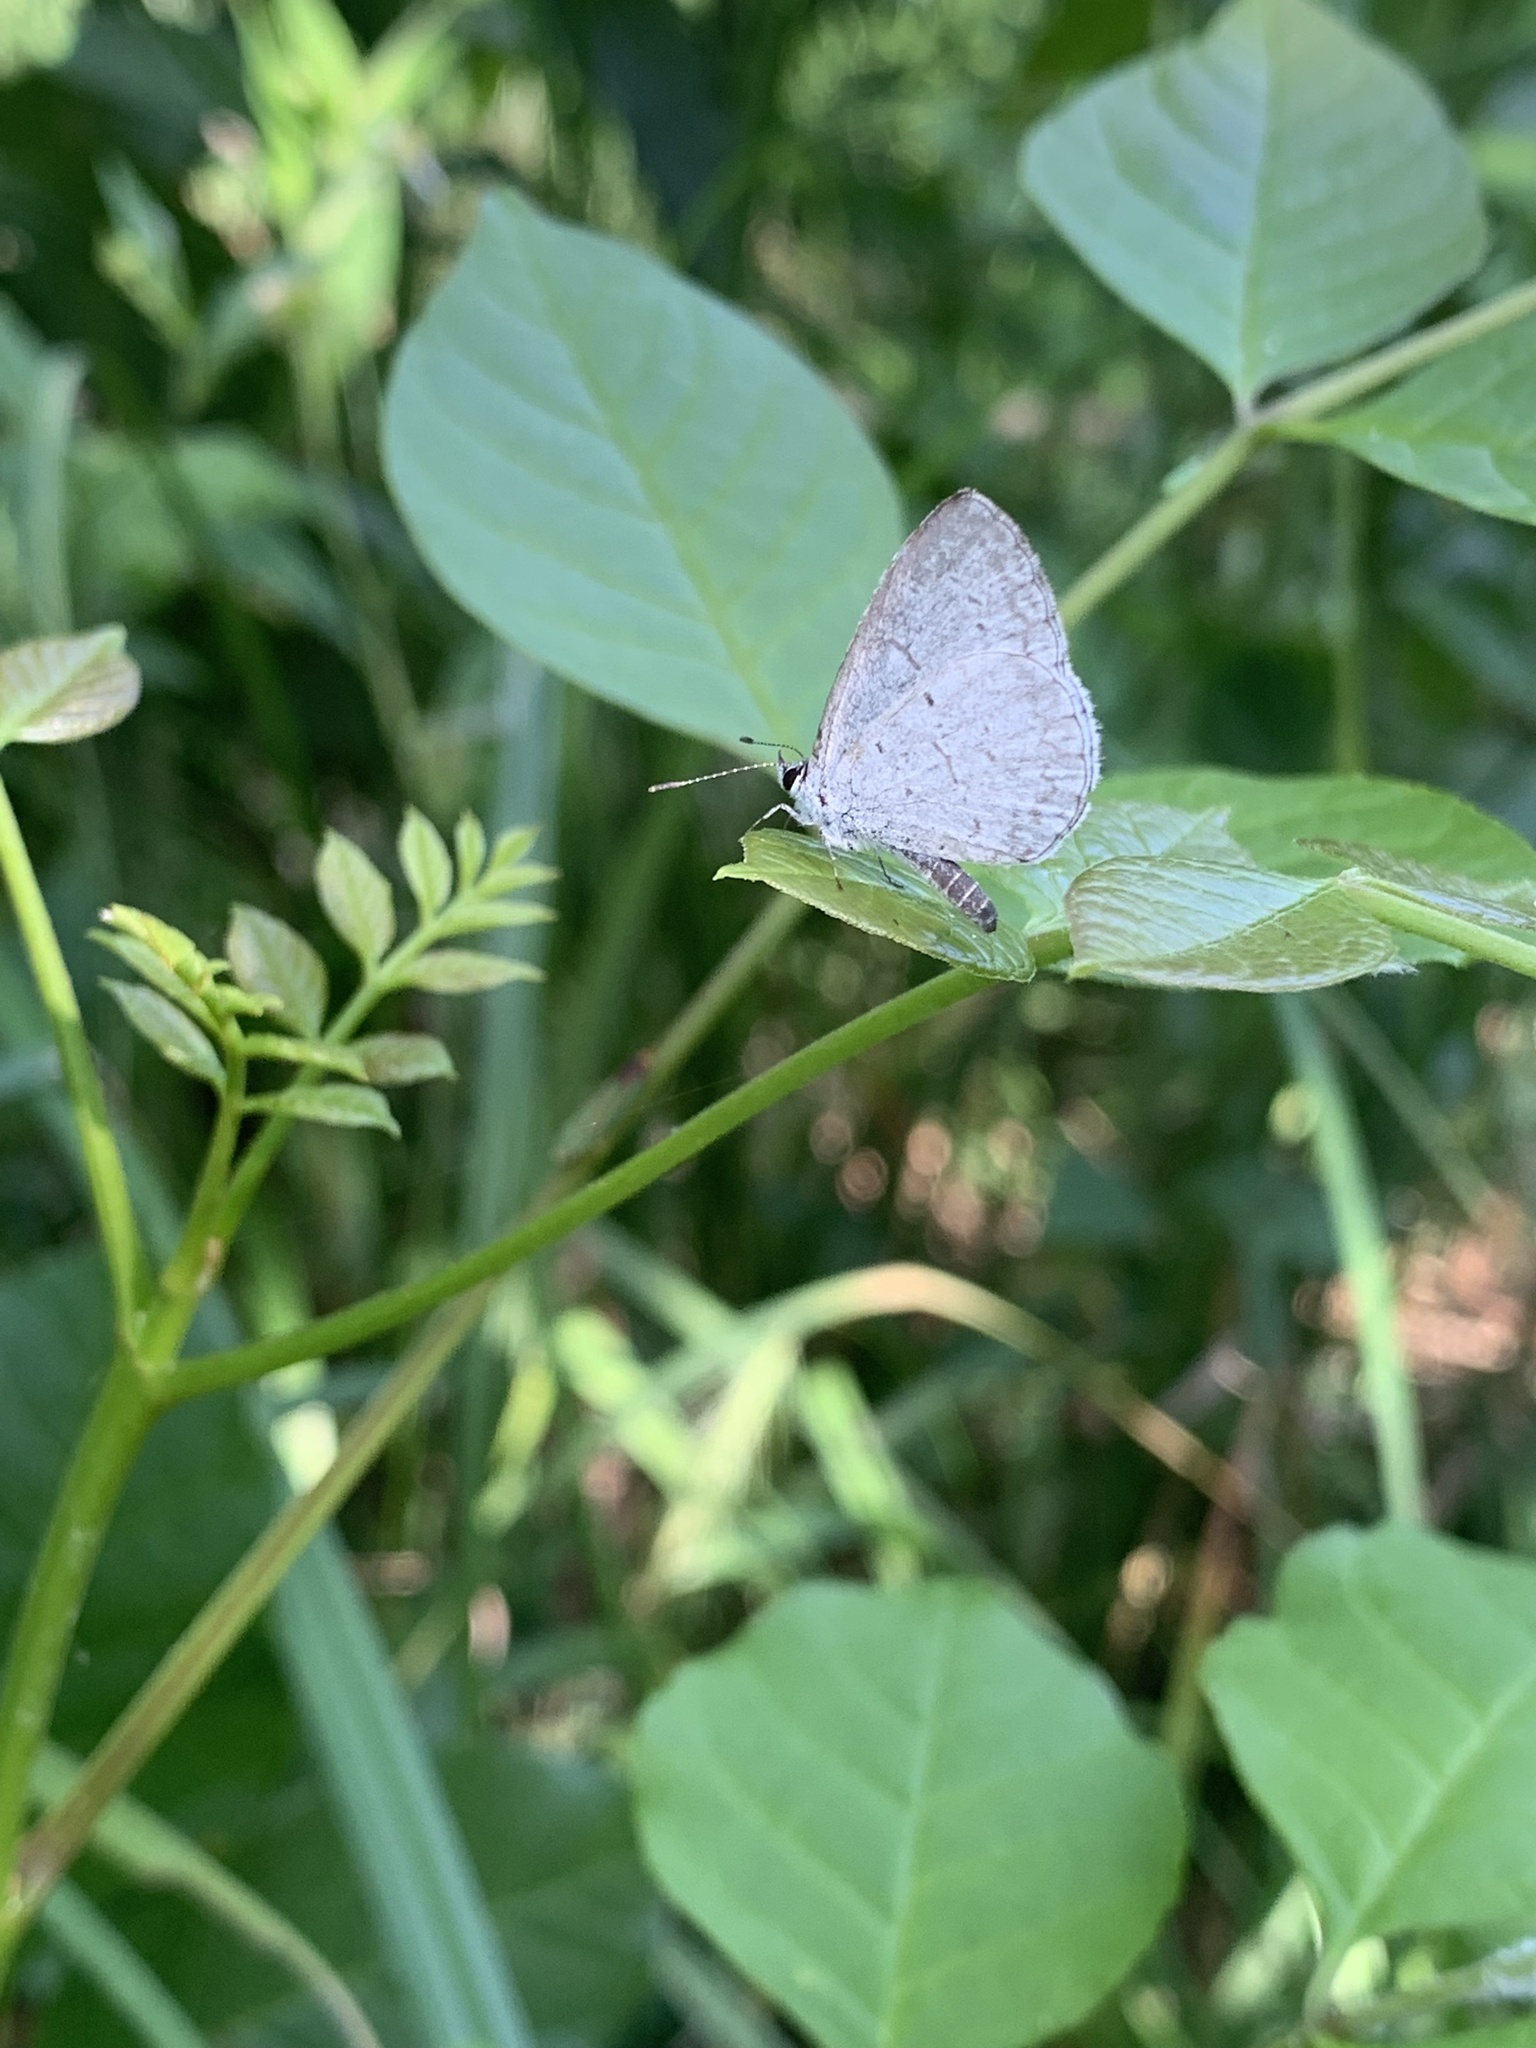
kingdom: Animalia
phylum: Arthropoda
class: Insecta
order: Lepidoptera
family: Lycaenidae
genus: Cyaniris
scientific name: Cyaniris neglecta
